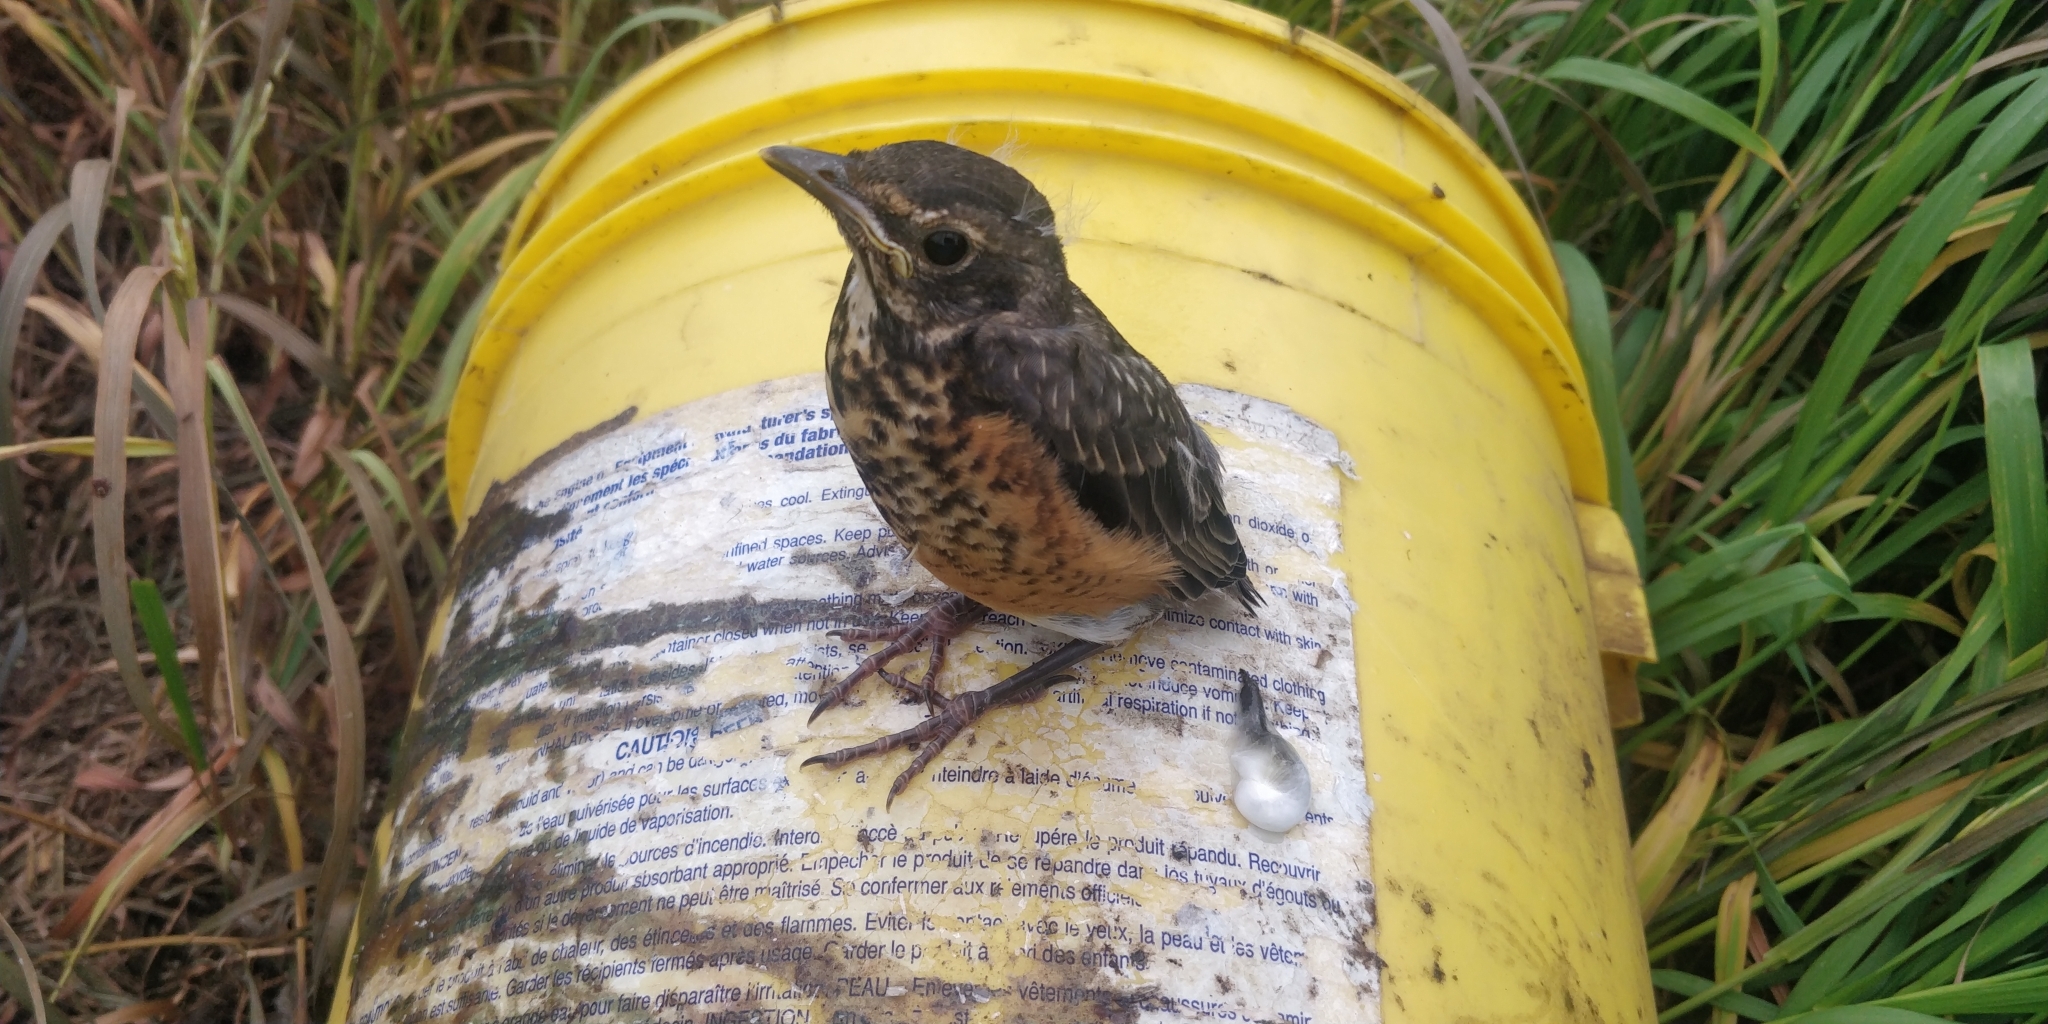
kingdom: Animalia
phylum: Chordata
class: Aves
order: Passeriformes
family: Turdidae
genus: Turdus
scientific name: Turdus migratorius
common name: American robin
